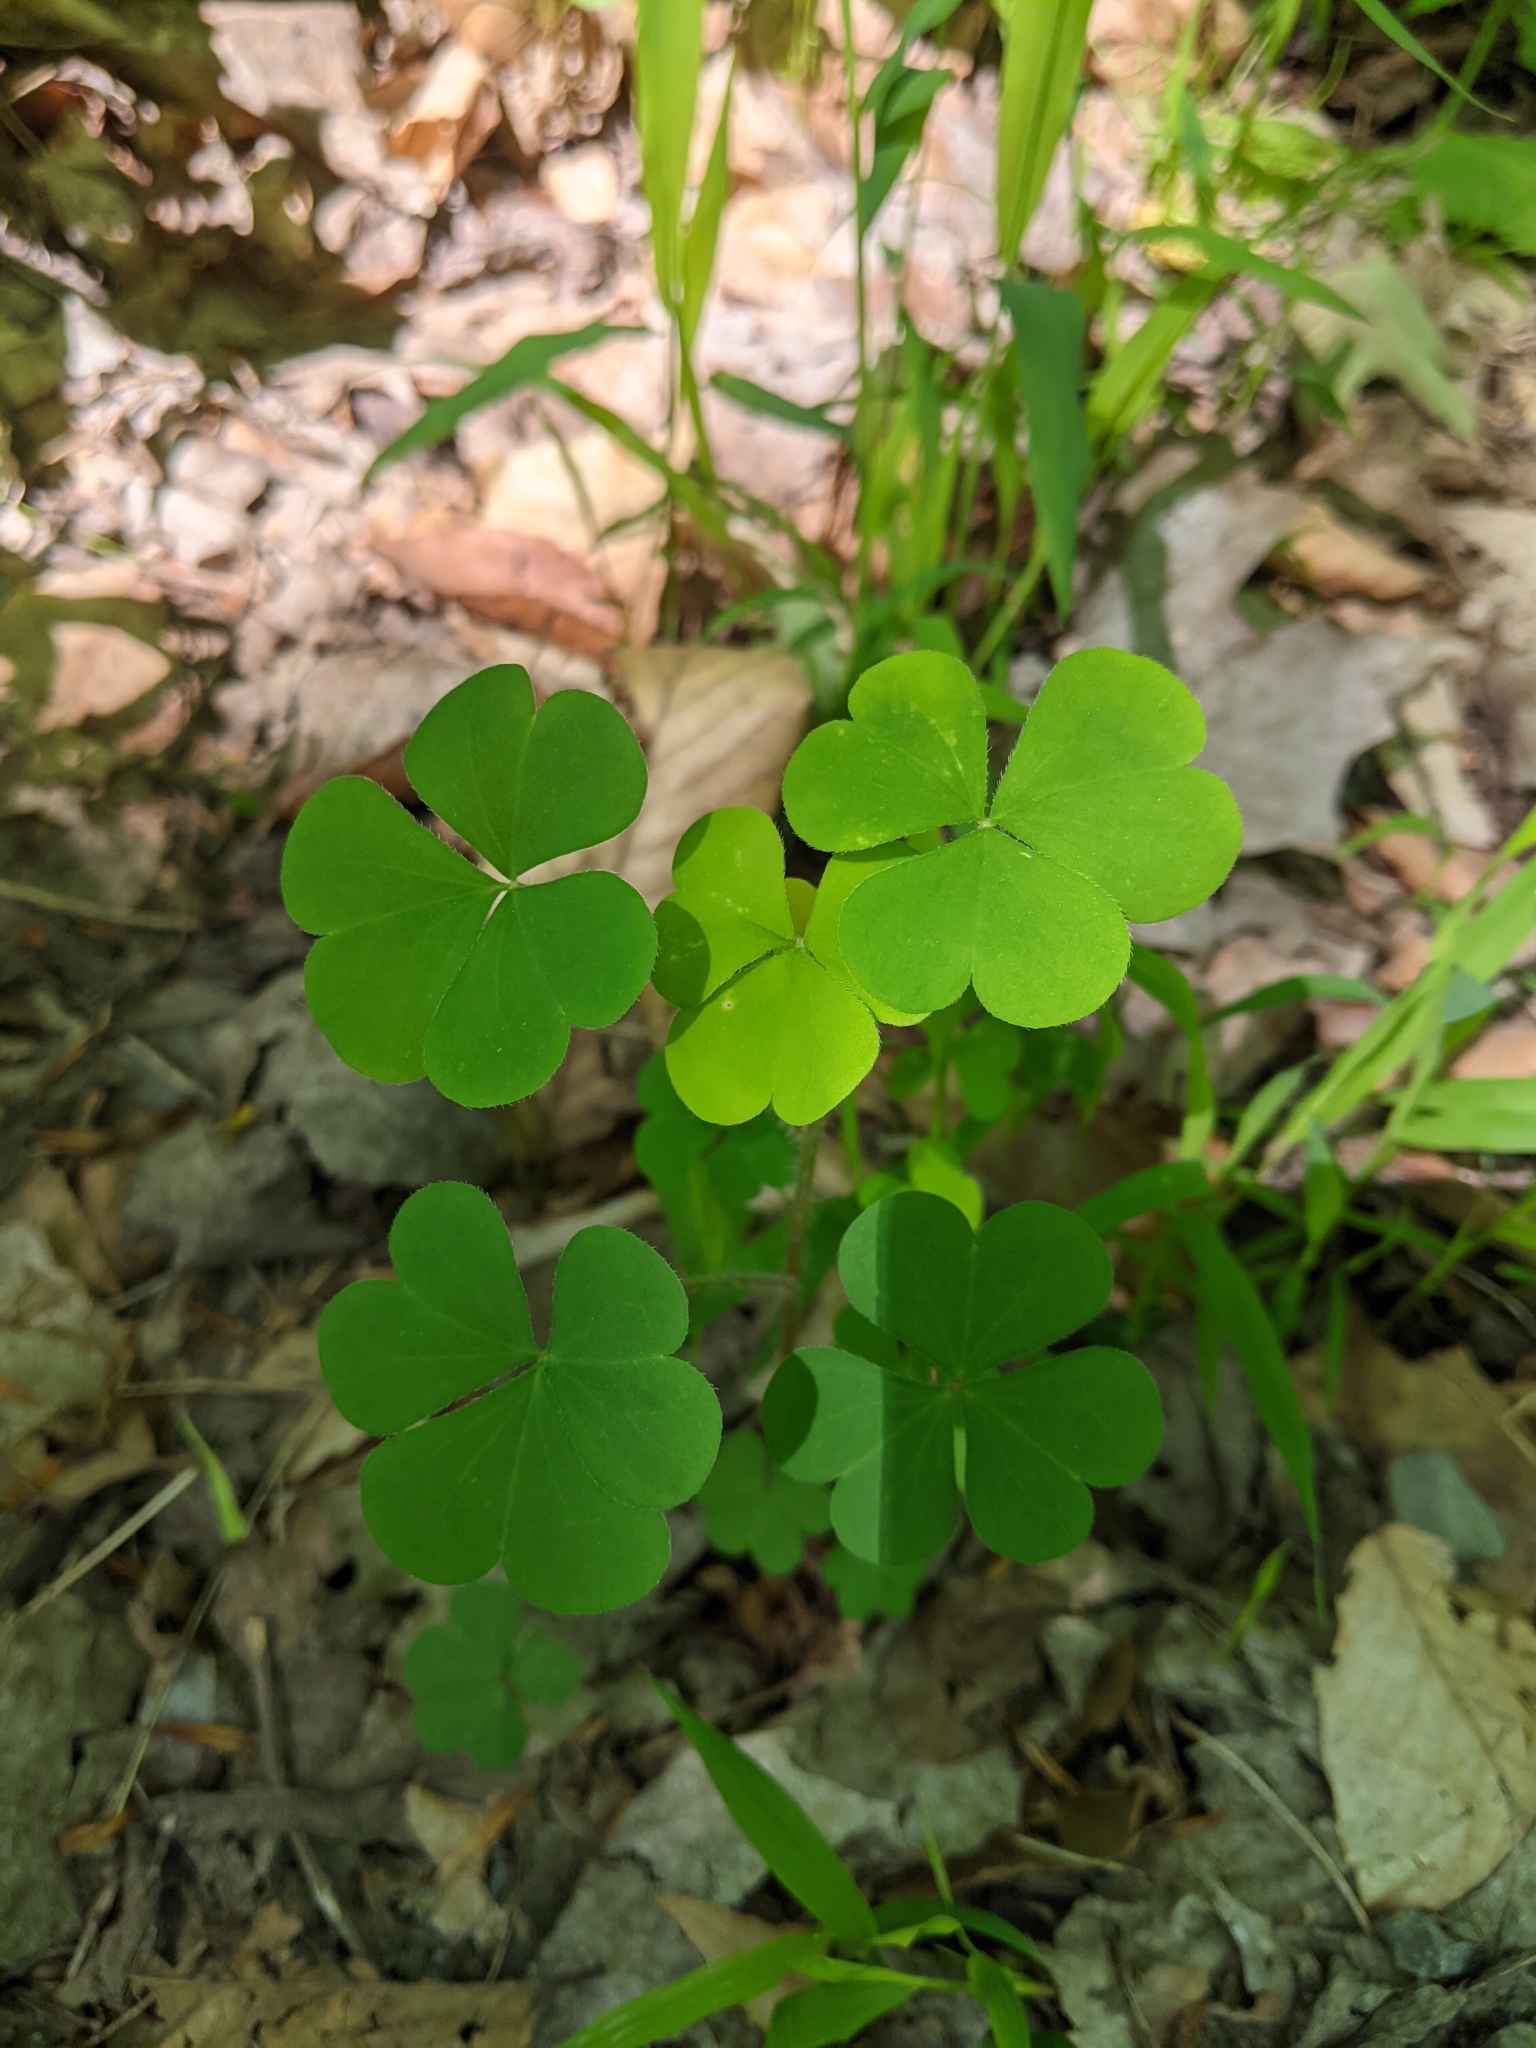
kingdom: Plantae
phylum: Tracheophyta
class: Magnoliopsida
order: Oxalidales
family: Oxalidaceae
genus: Oxalis
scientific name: Oxalis stricta
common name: Upright yellow-sorrel
